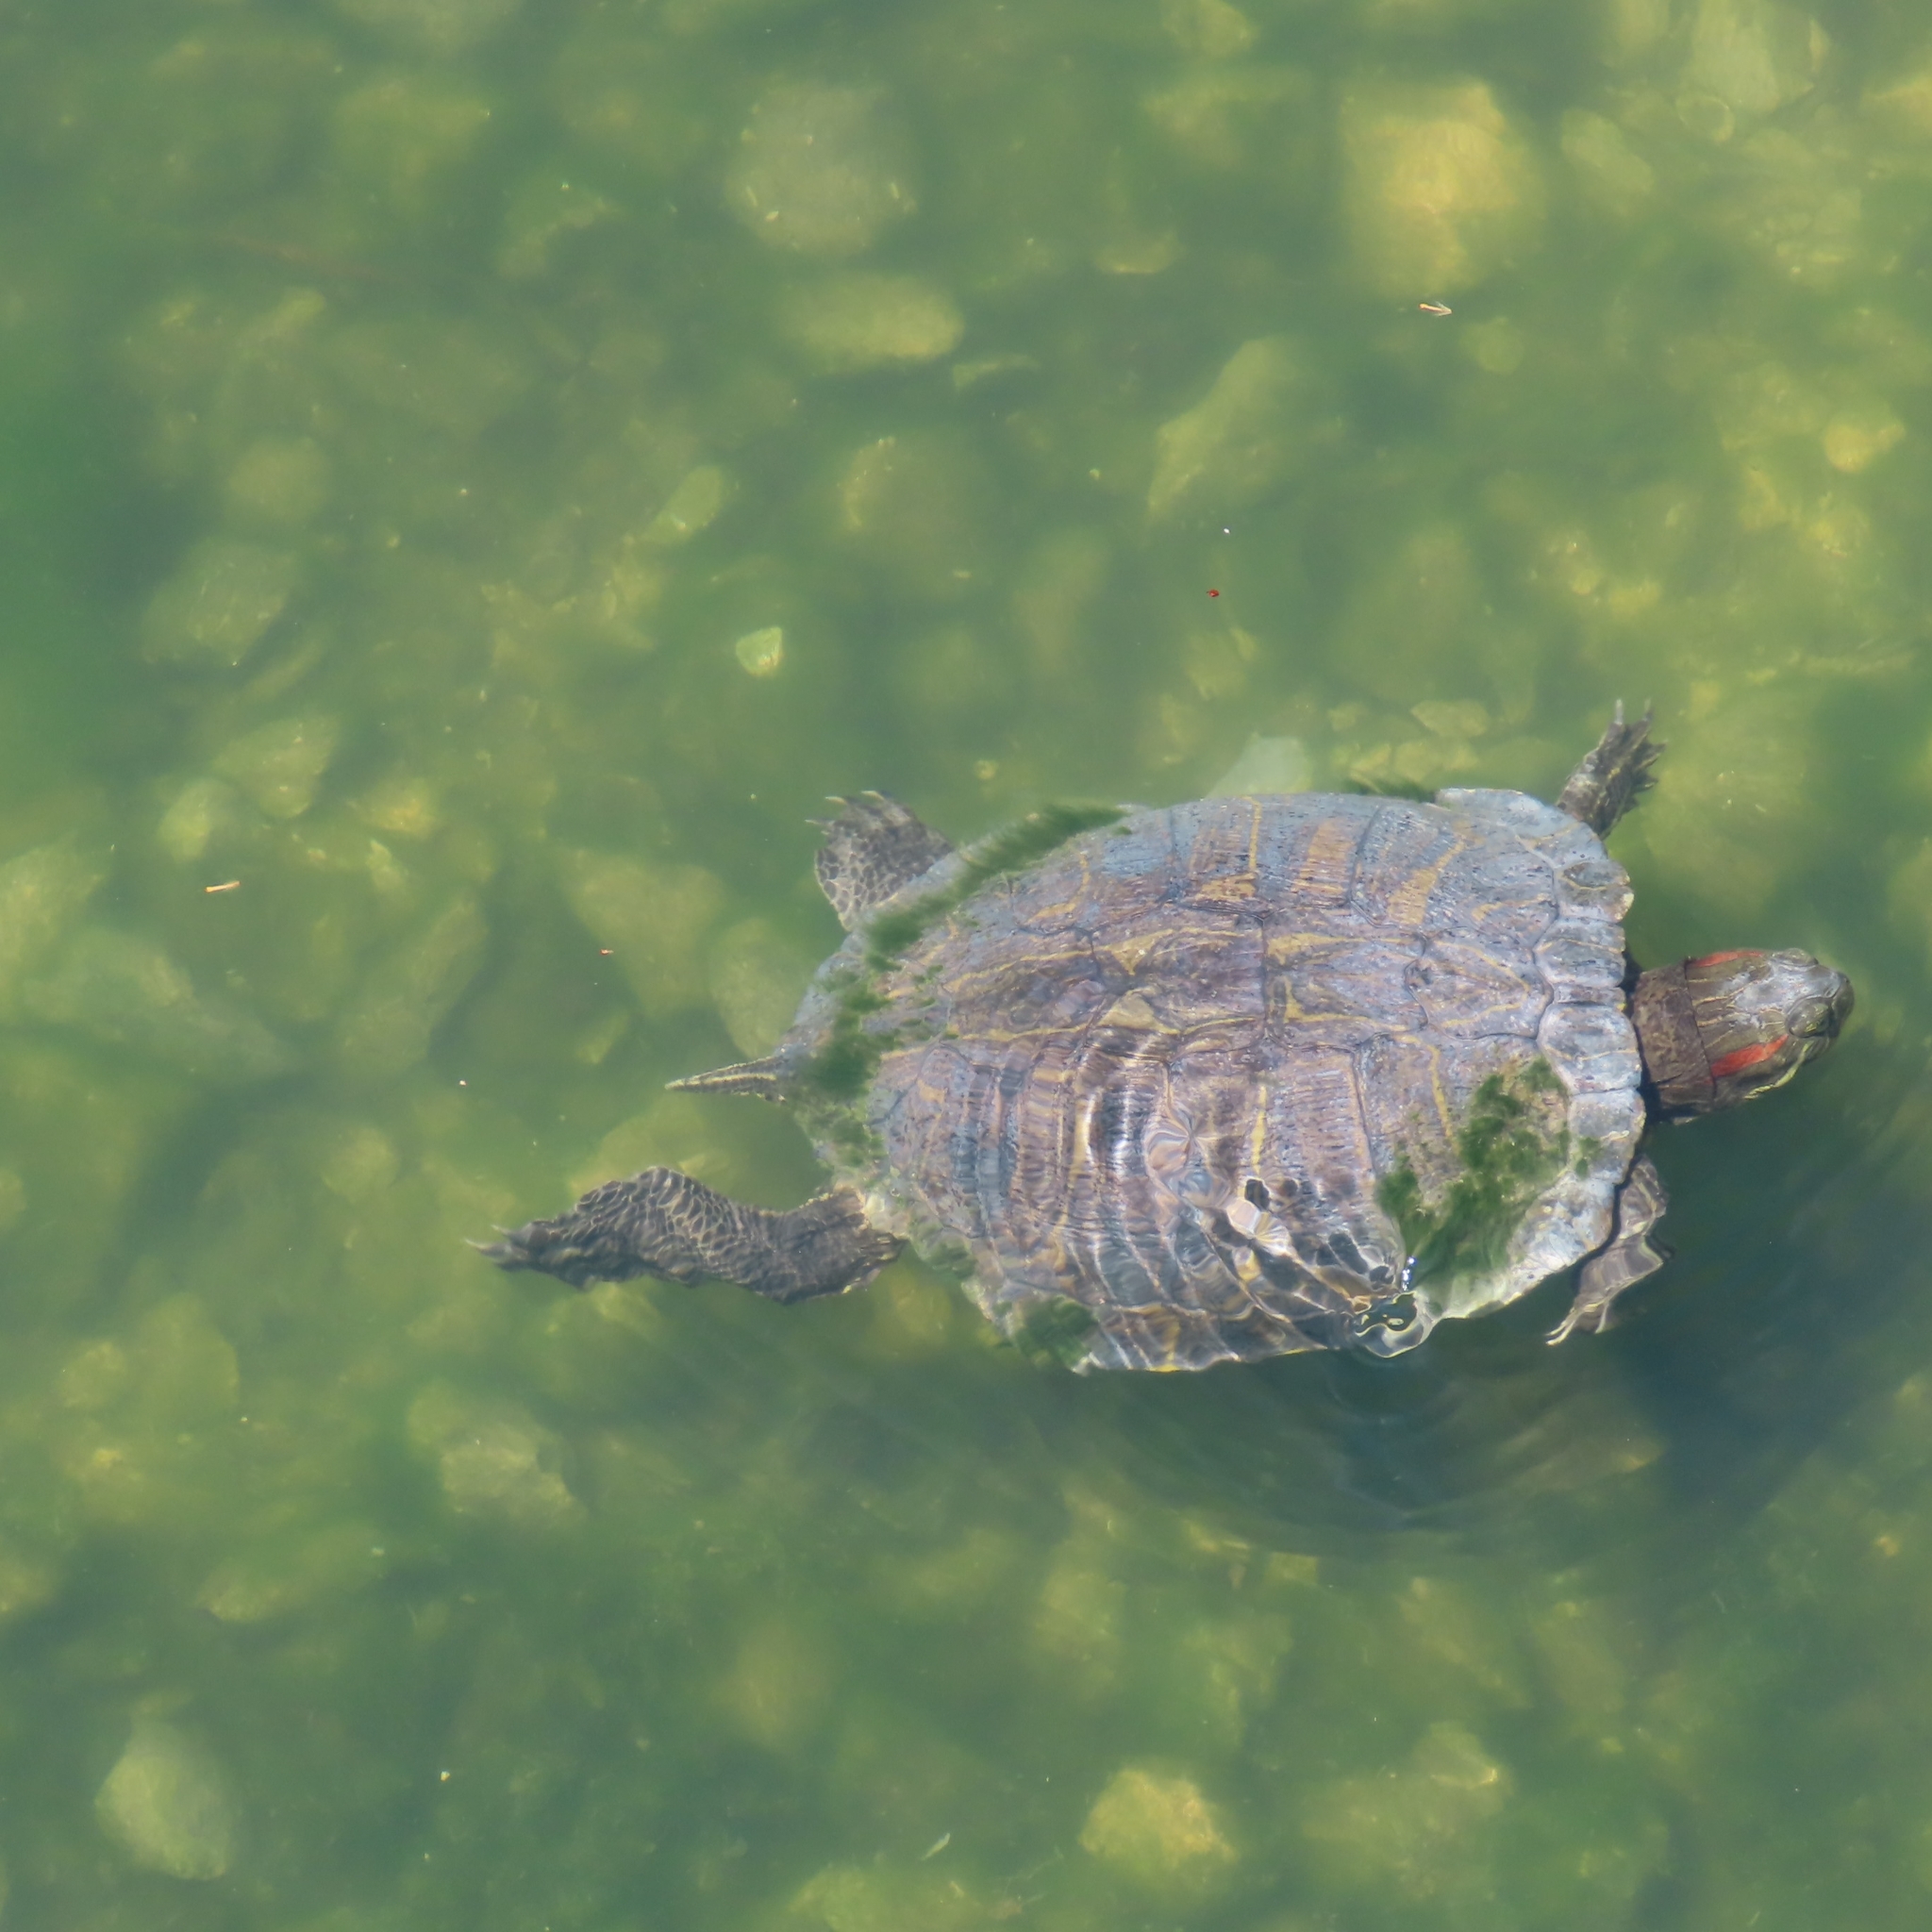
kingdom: Animalia
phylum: Chordata
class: Testudines
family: Emydidae
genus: Trachemys
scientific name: Trachemys scripta
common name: Slider
